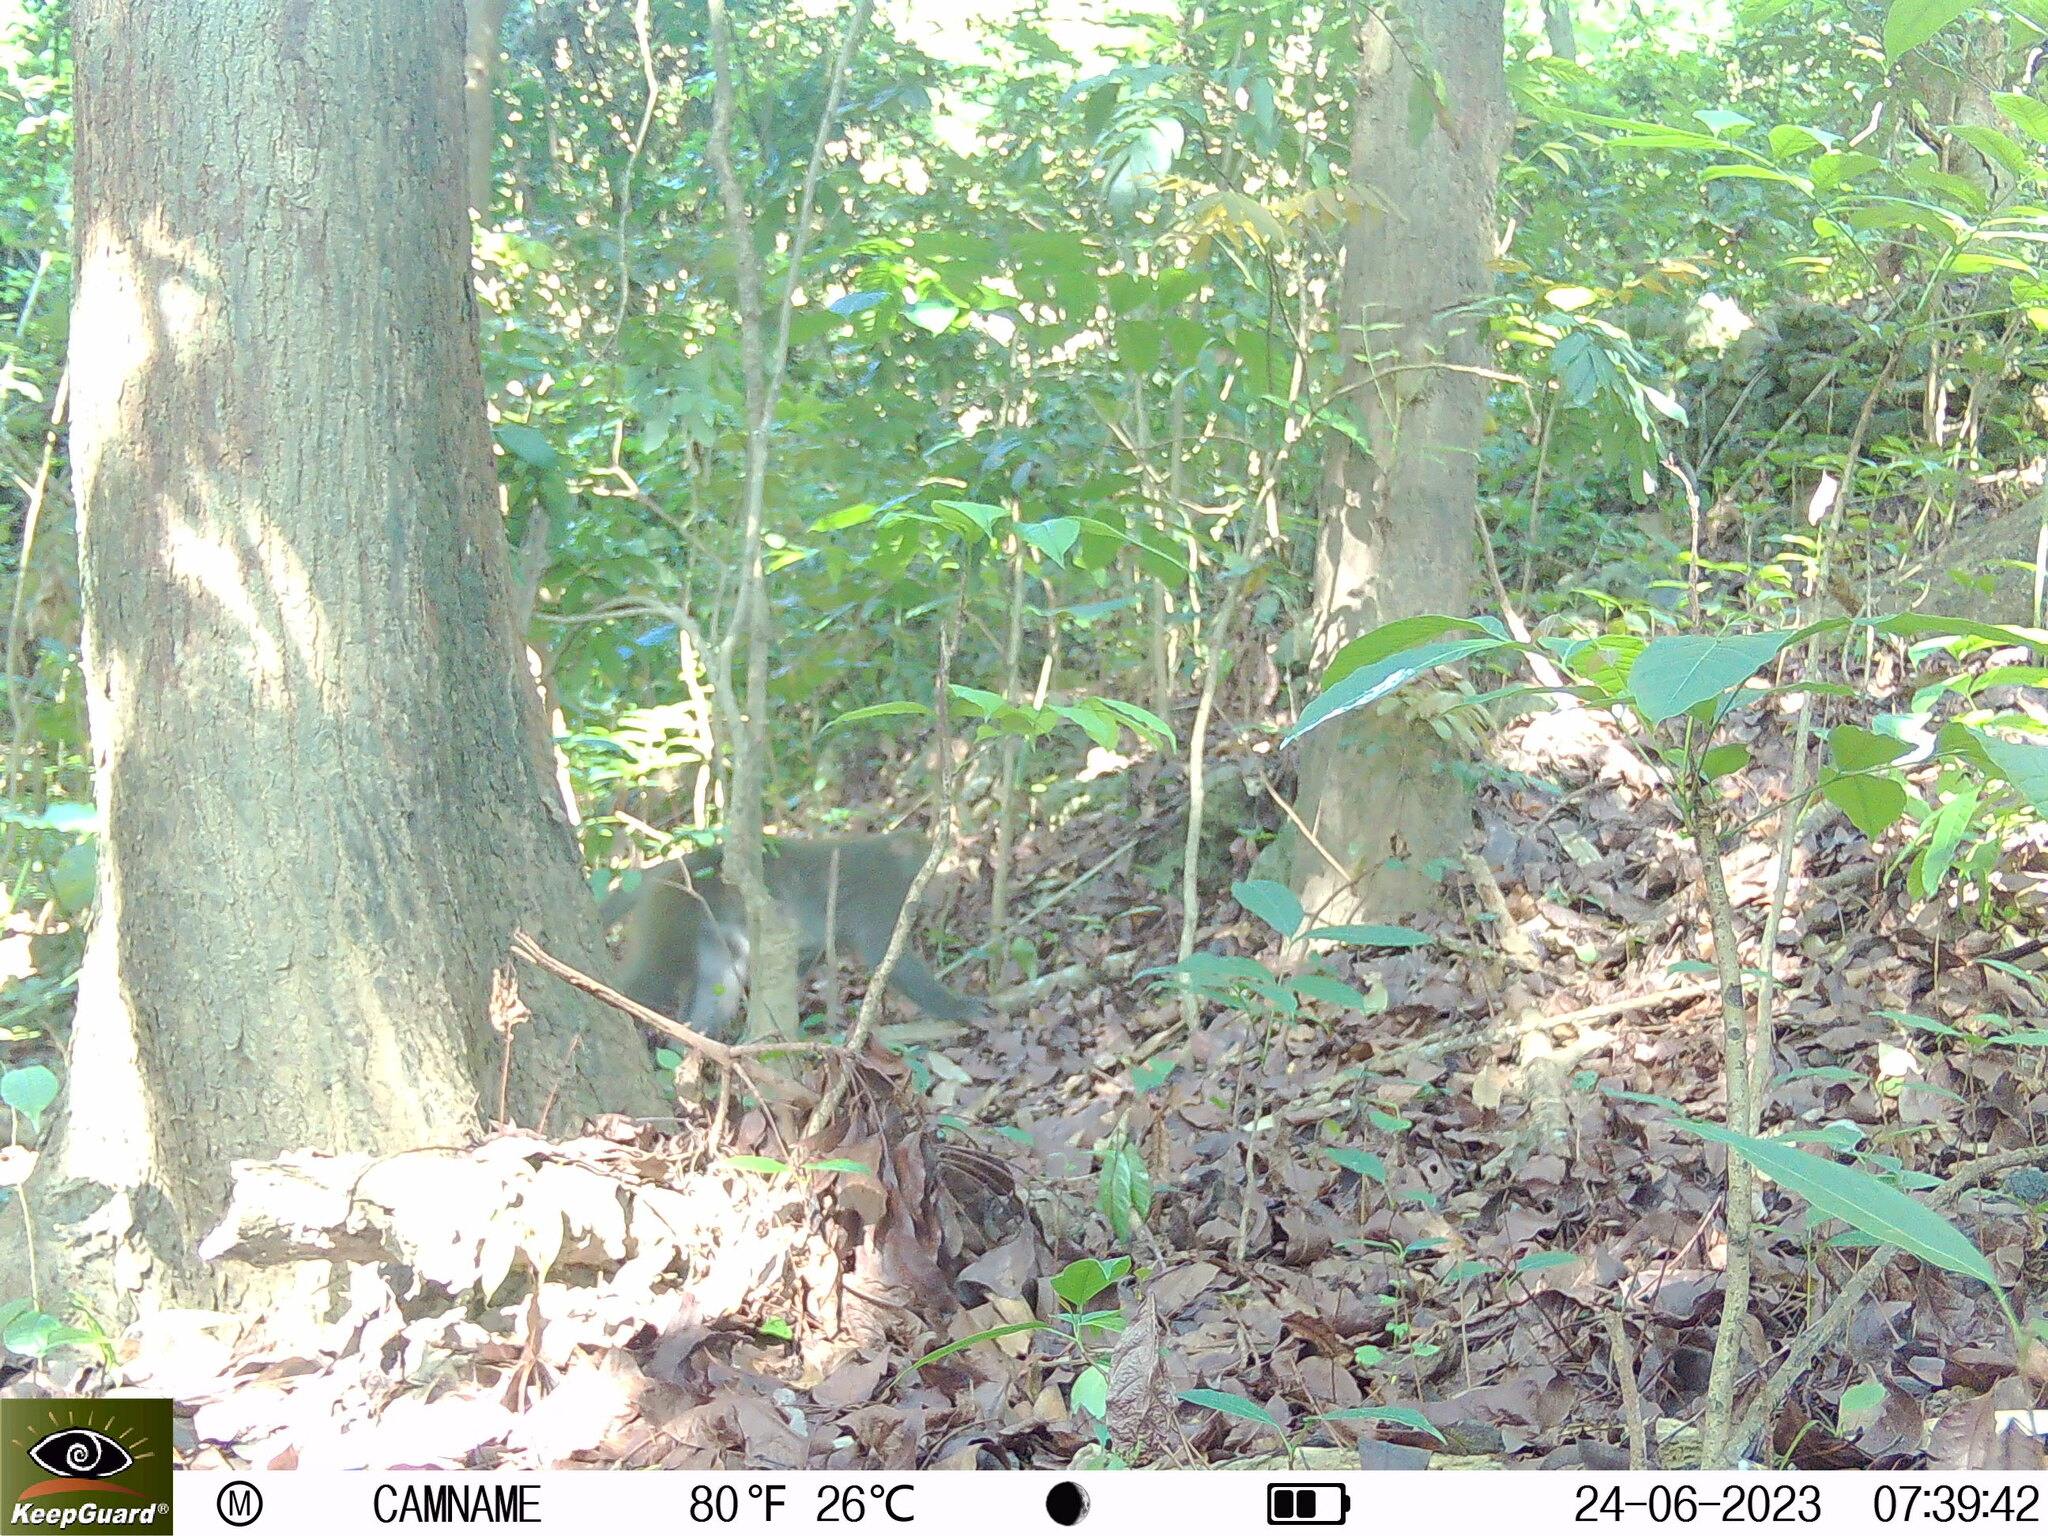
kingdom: Animalia
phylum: Chordata
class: Mammalia
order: Primates
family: Cercopithecidae
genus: Macaca
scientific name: Macaca cyclopis
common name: Formosan rock macaque
